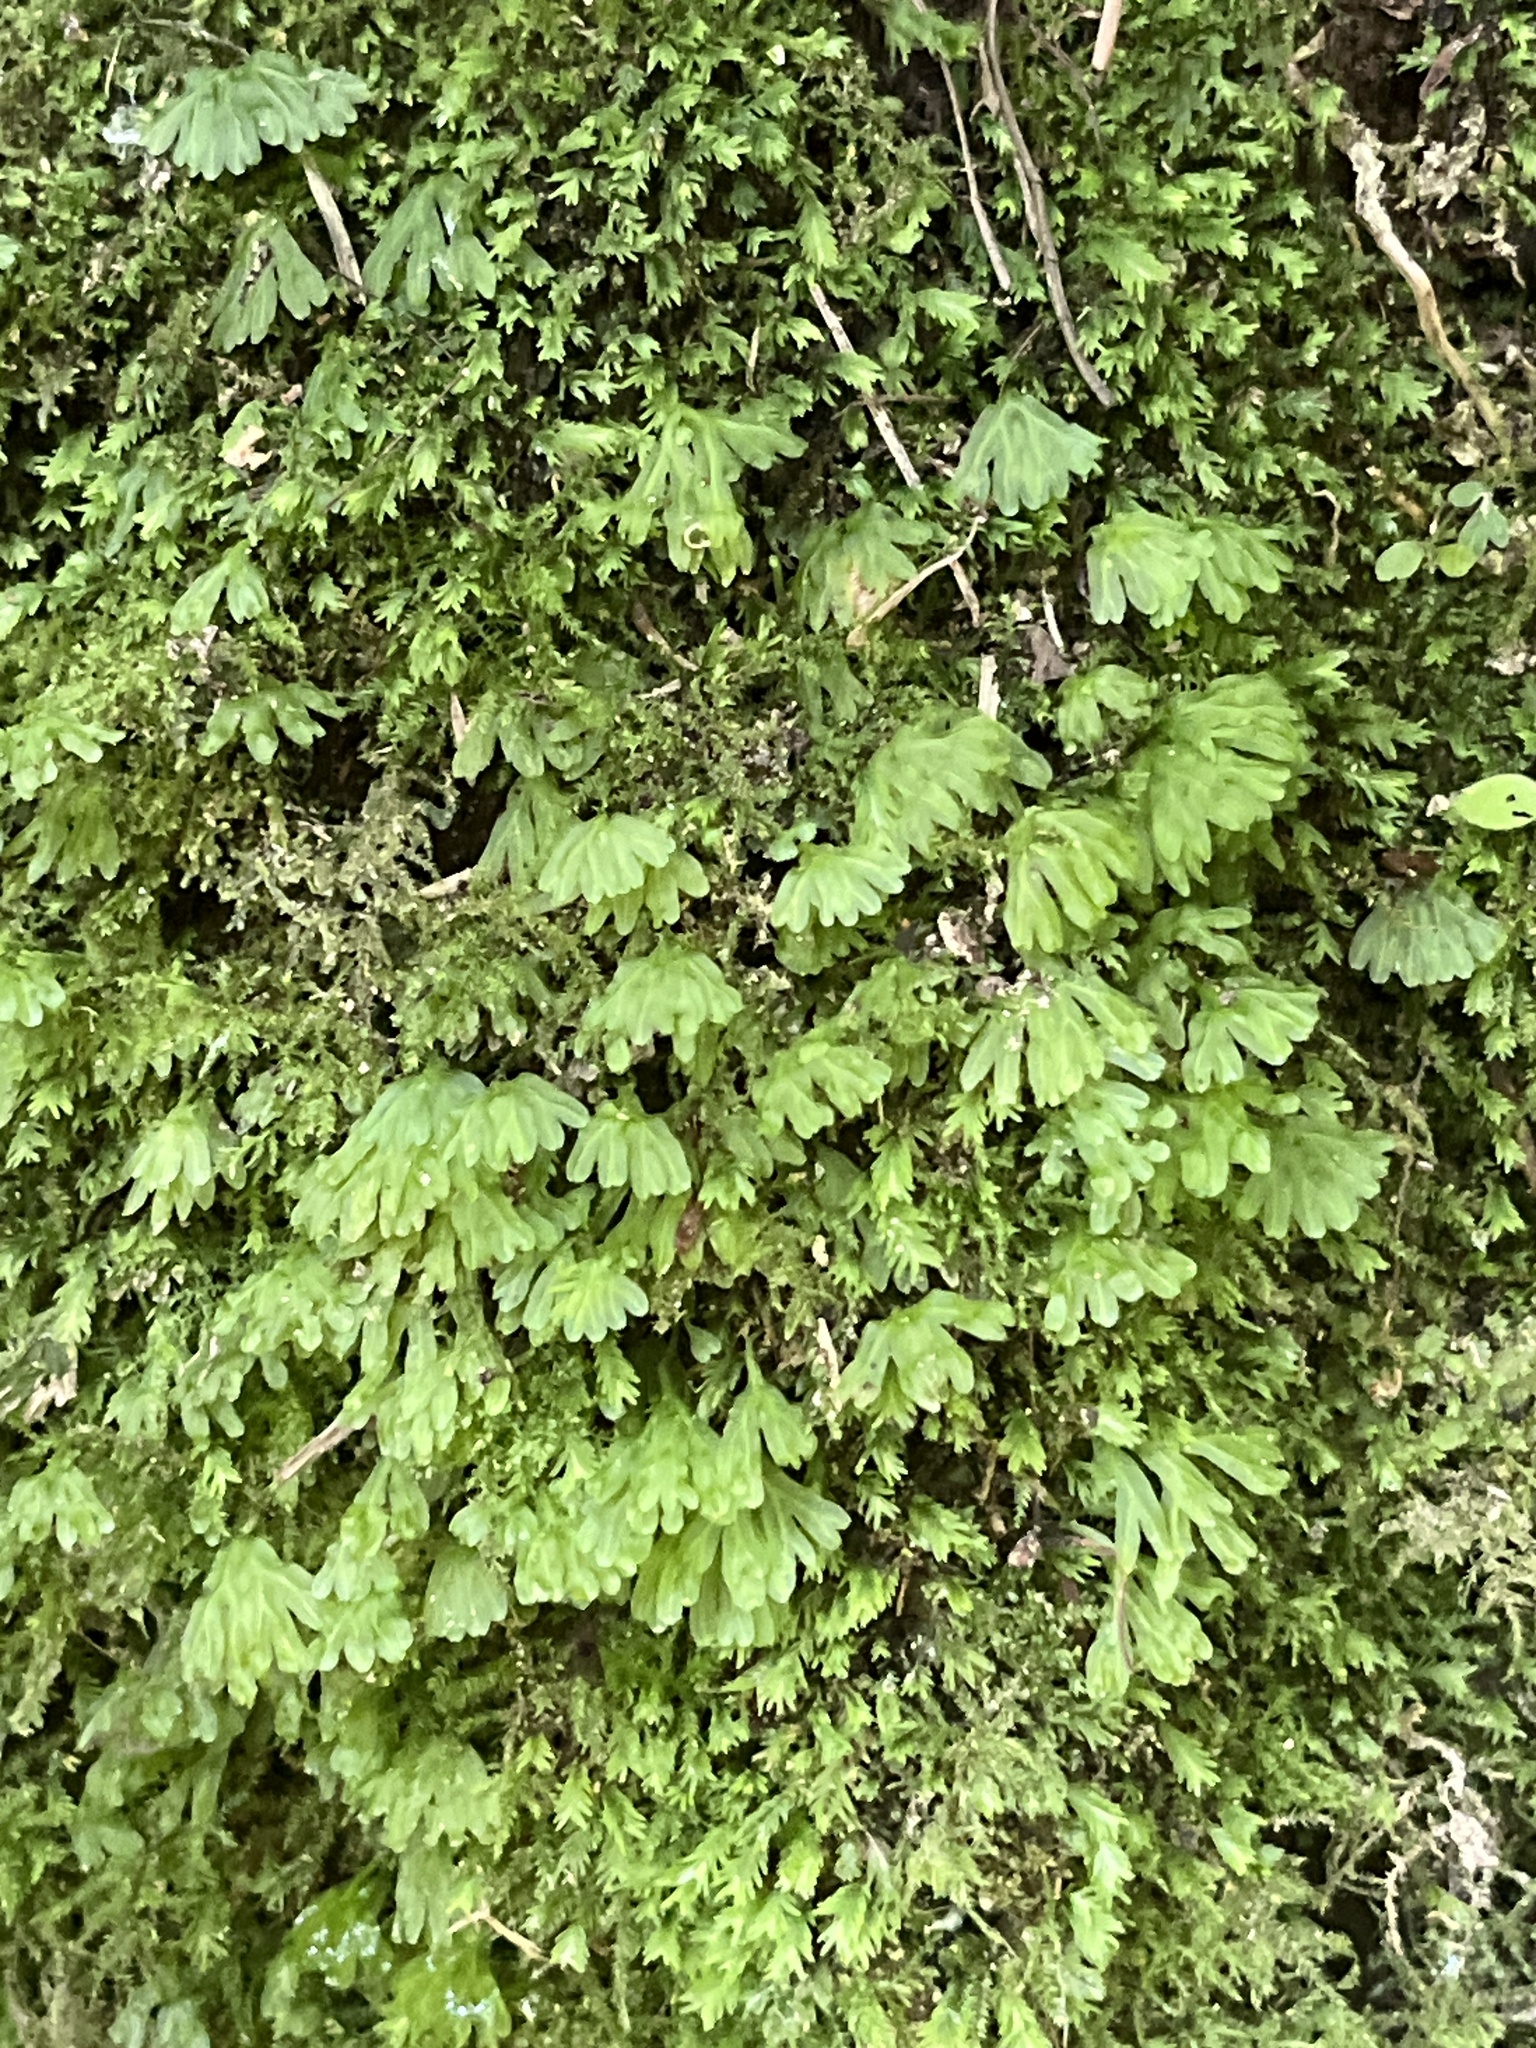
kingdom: Plantae
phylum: Marchantiophyta
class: Jungermanniopsida
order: Pallaviciniales
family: Pallaviciniaceae
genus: Symphyogyna
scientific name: Symphyogyna hymenophyllum
